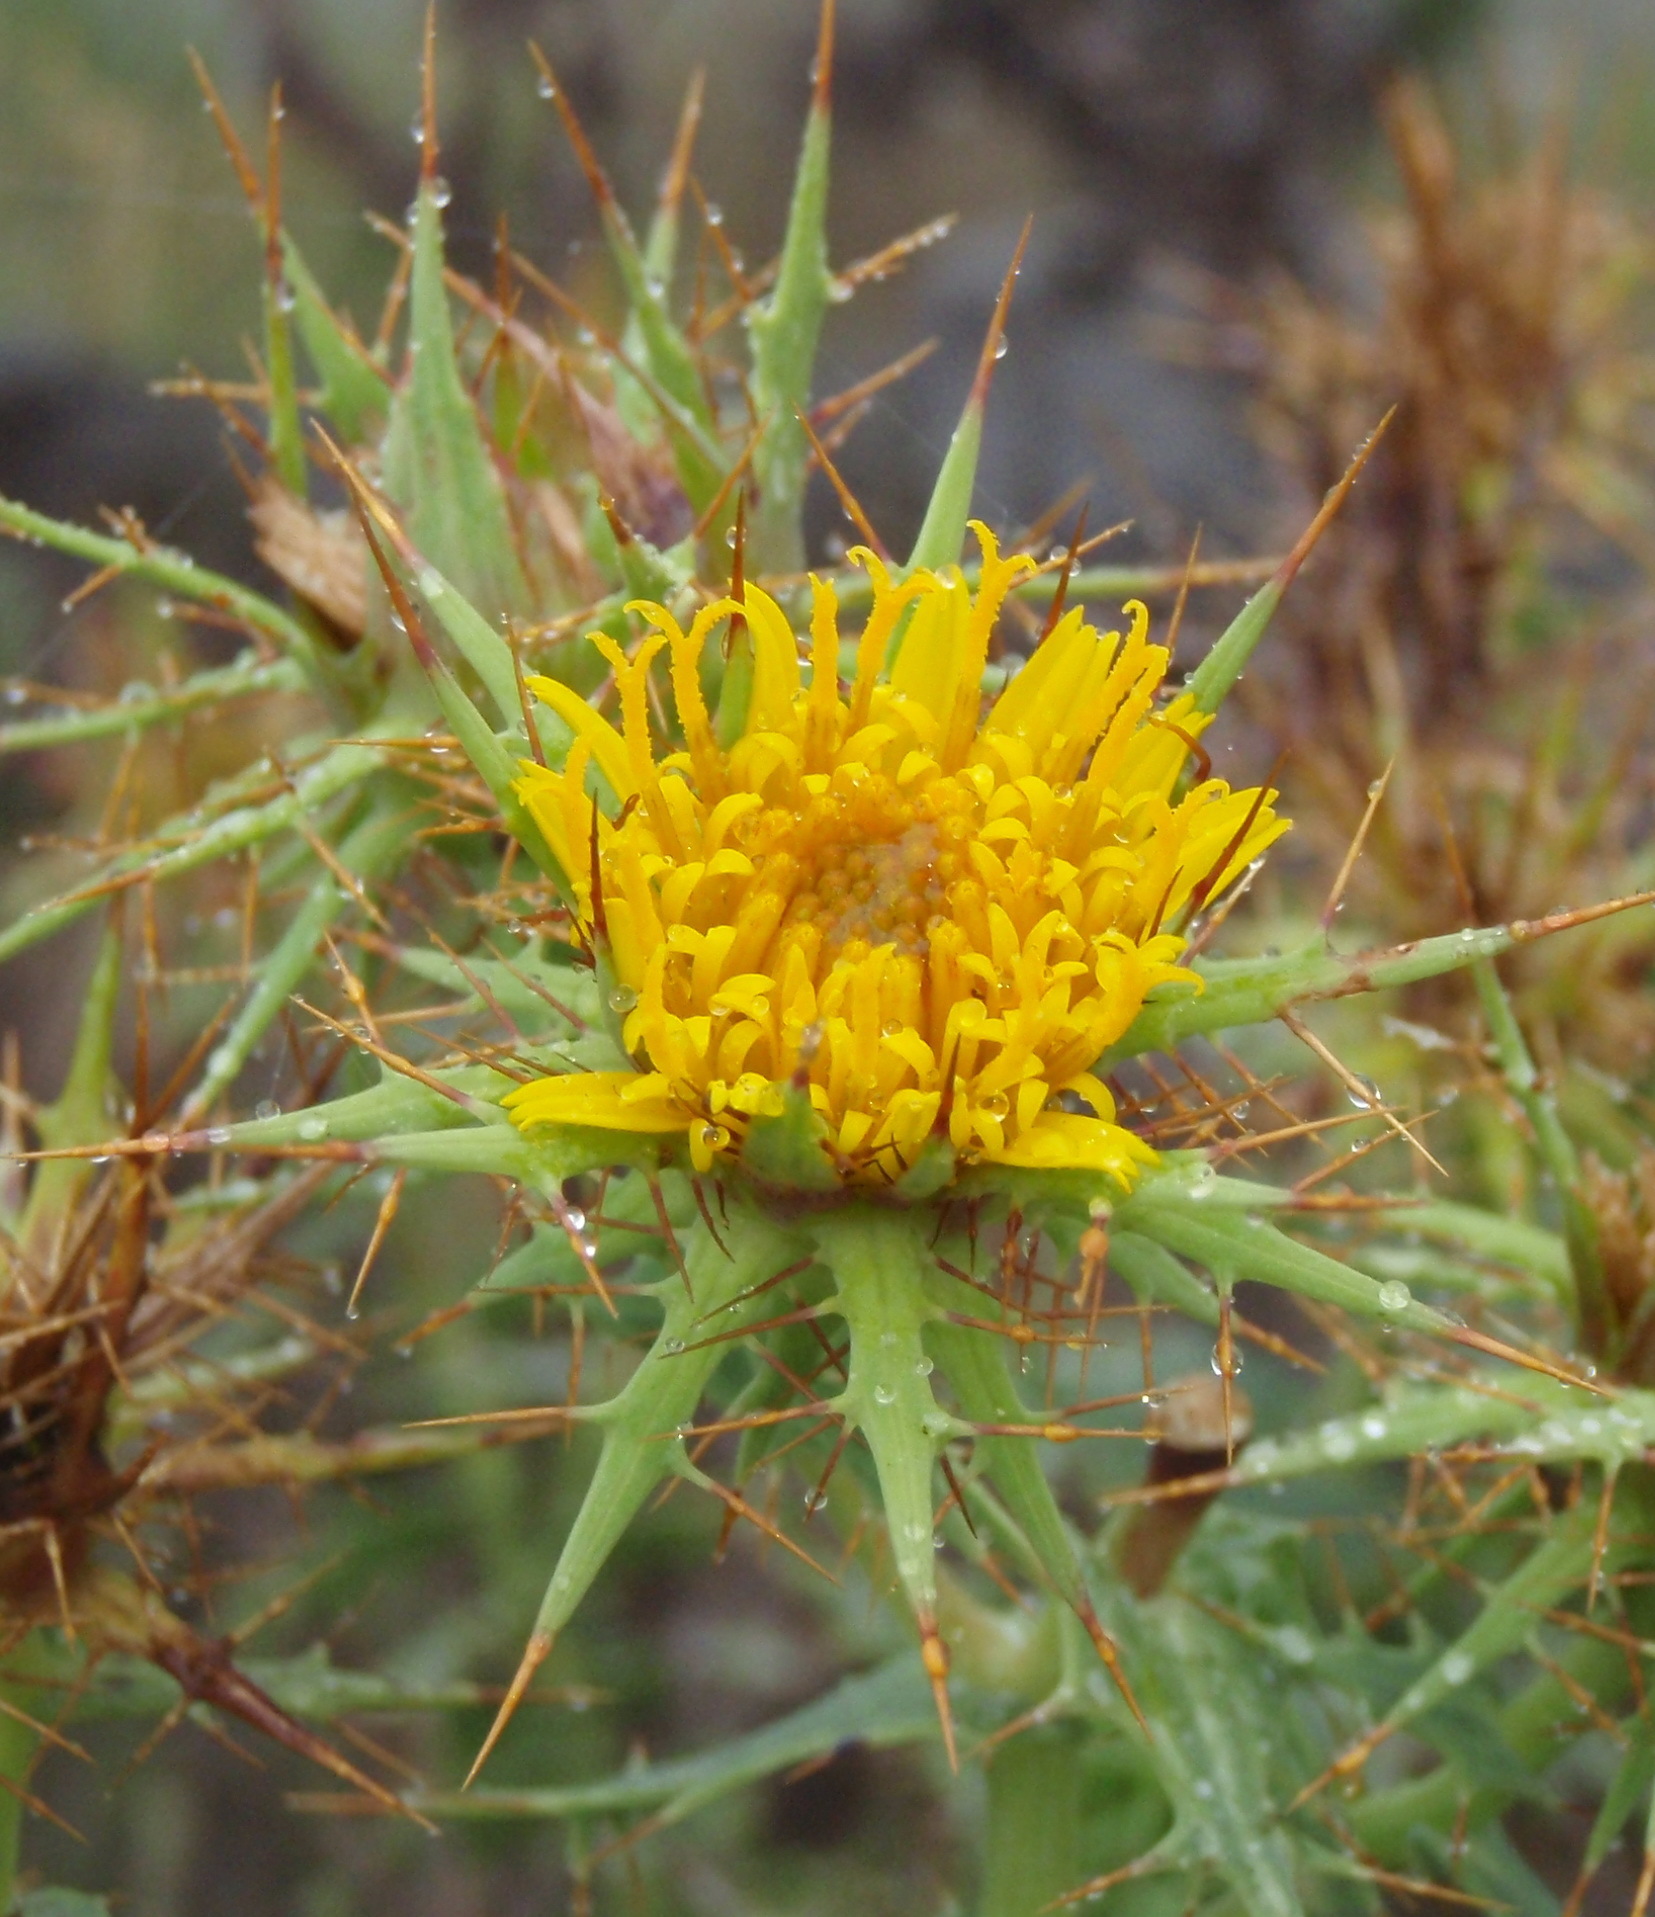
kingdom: Plantae
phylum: Tracheophyta
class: Magnoliopsida
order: Asterales
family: Asteraceae
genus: Berkheya
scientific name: Berkheya cruciata
